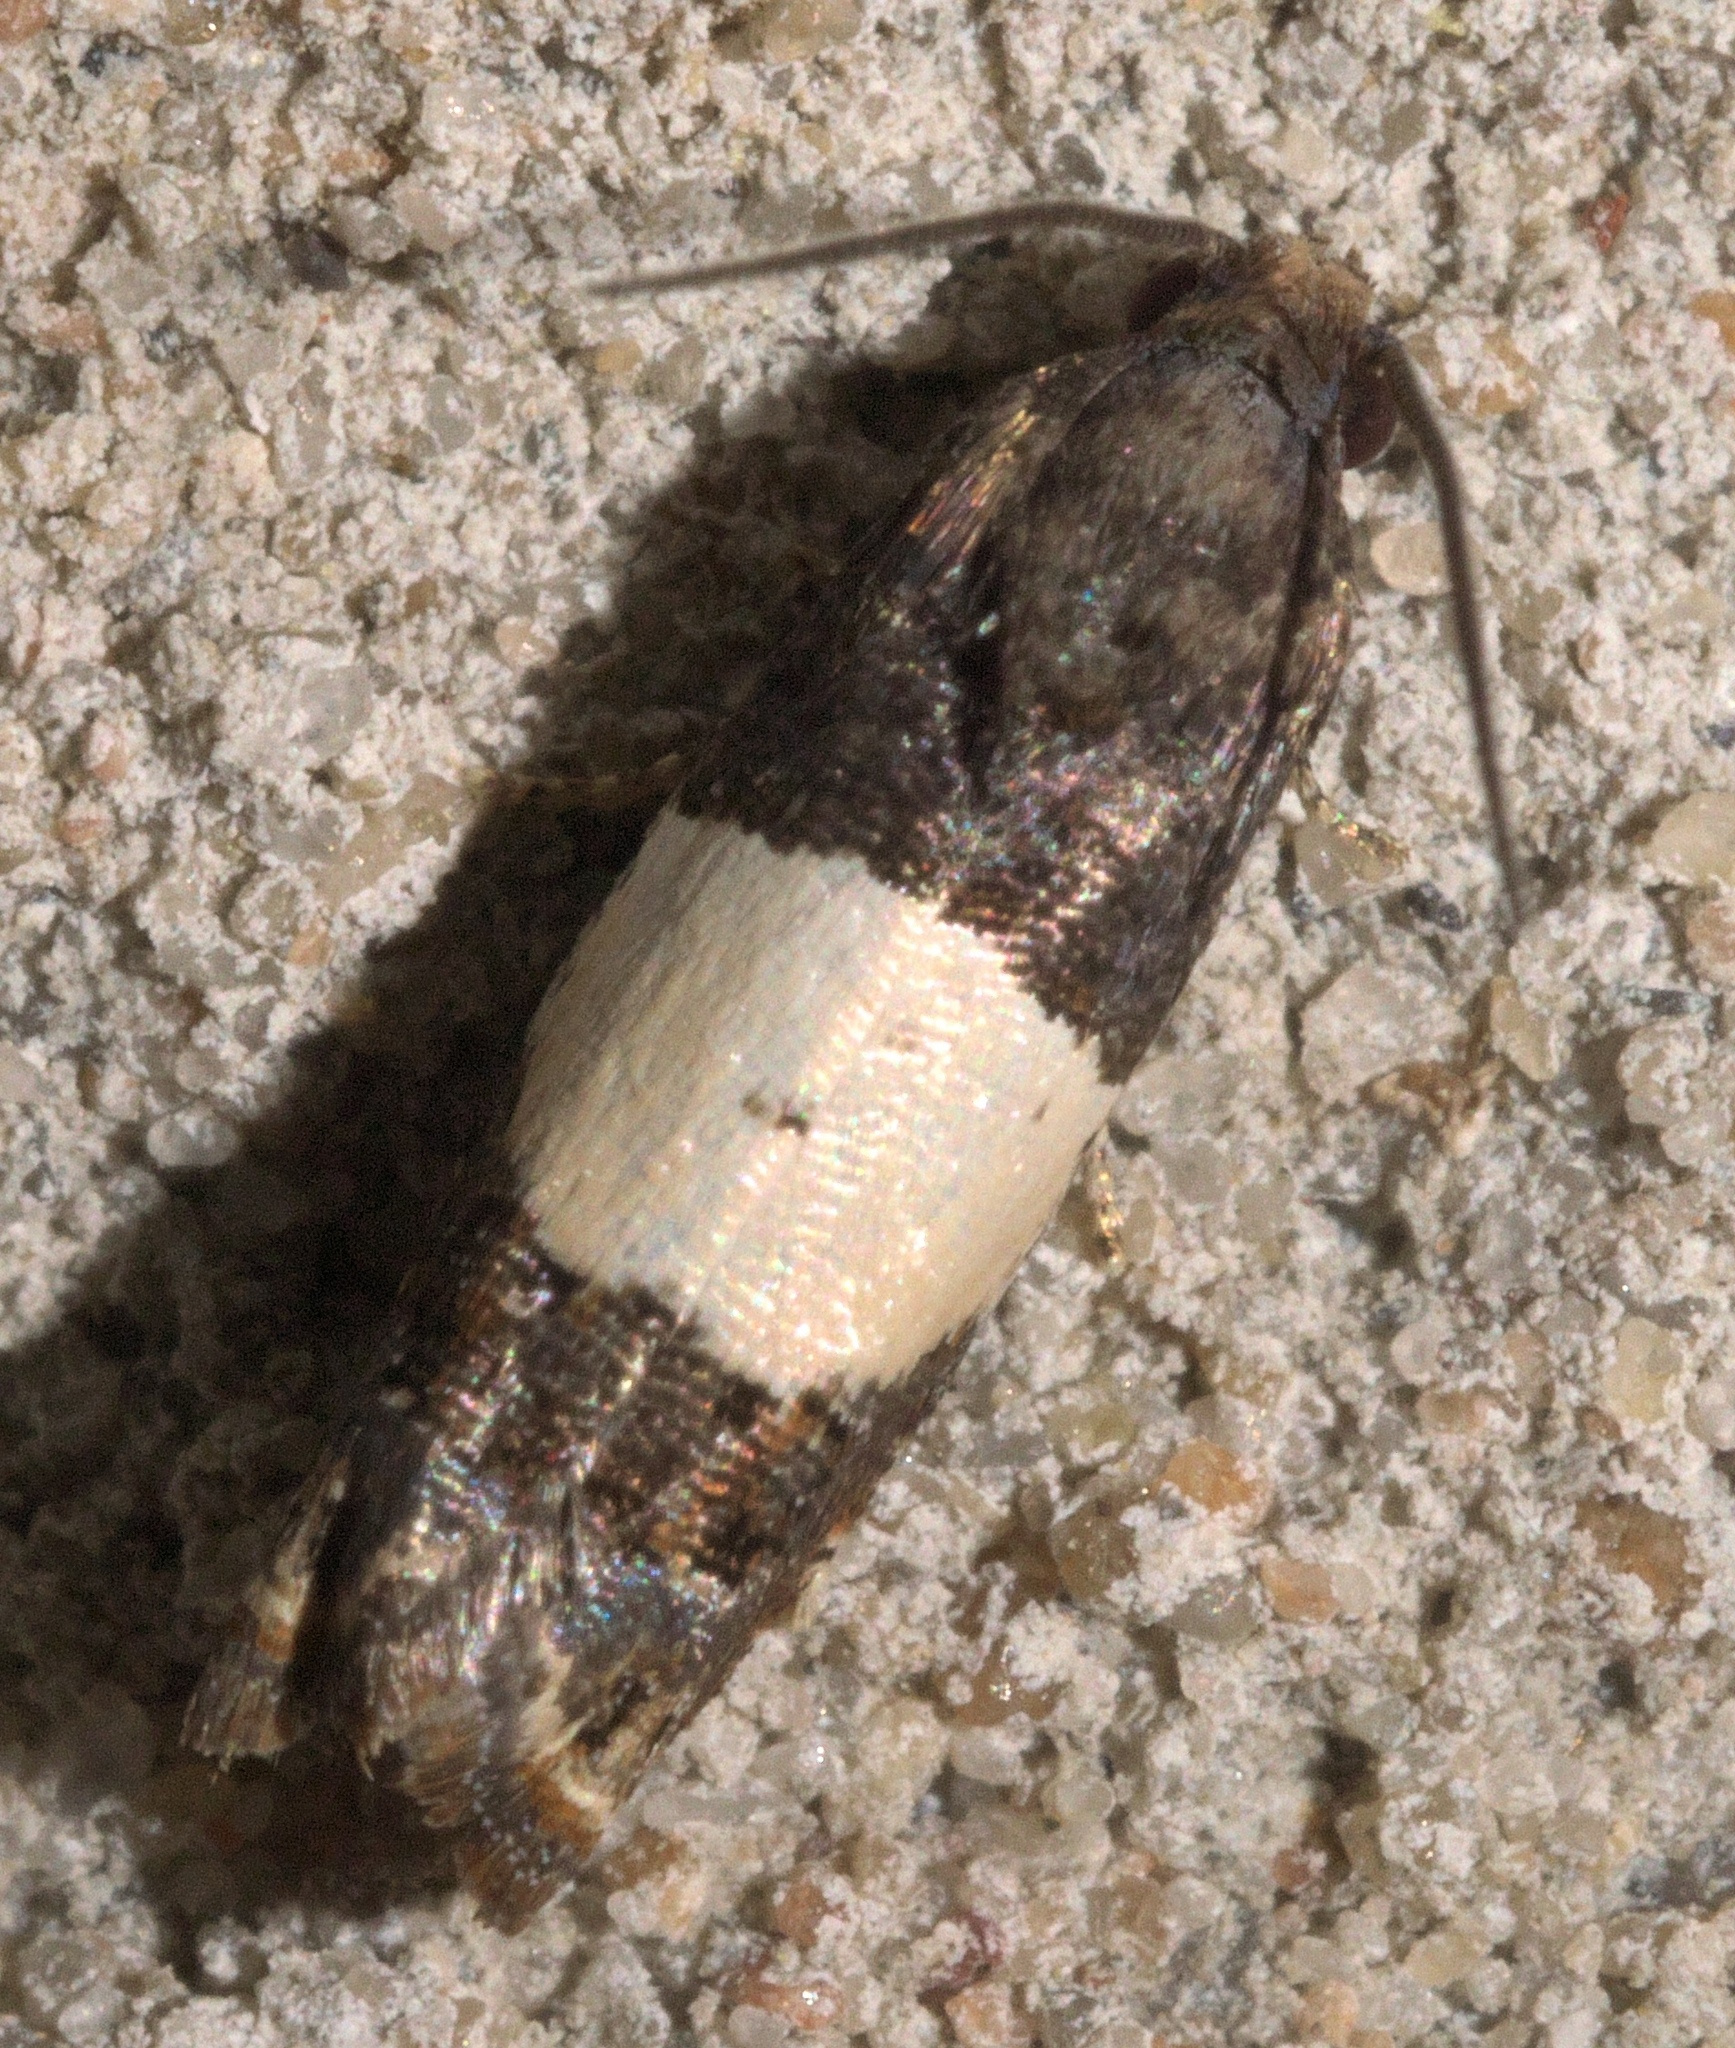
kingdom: Animalia
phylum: Arthropoda
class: Insecta
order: Lepidoptera
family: Tortricidae
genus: Epiblema
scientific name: Epiblema tripartitana
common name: Three-parted epiblema moth
